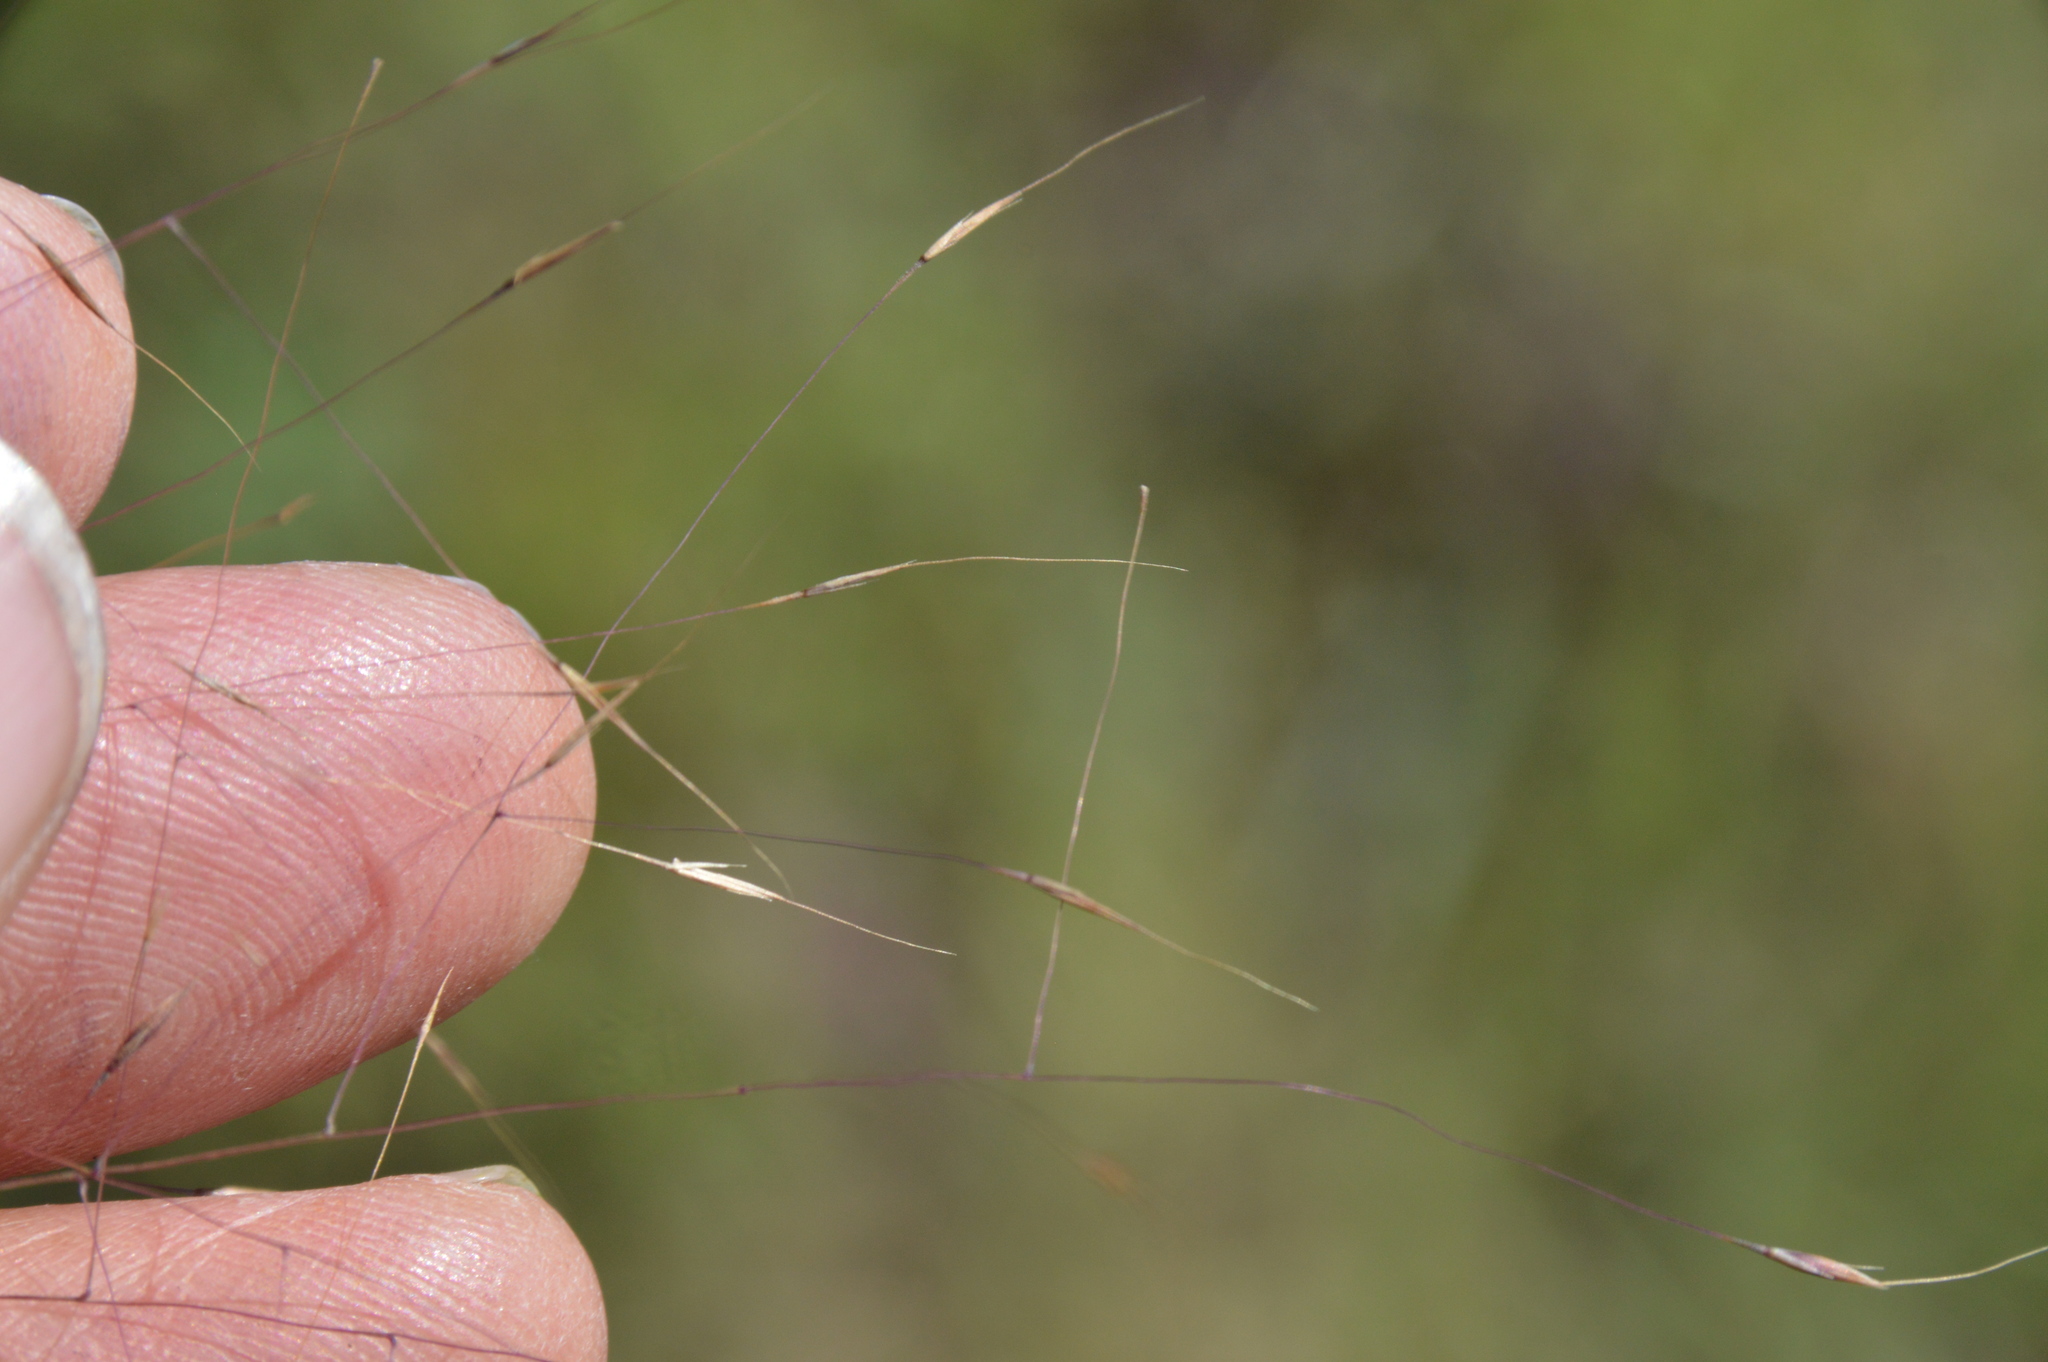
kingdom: Plantae
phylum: Tracheophyta
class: Liliopsida
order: Poales
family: Poaceae
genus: Muhlenbergia
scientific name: Muhlenbergia capillaris
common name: Purple grass
